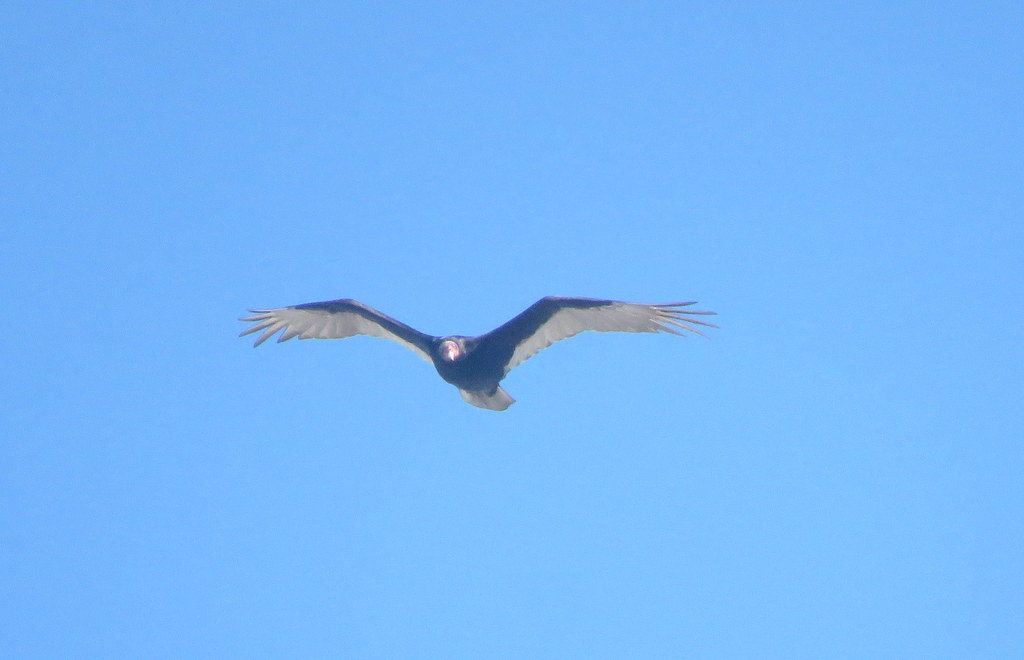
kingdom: Animalia
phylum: Chordata
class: Aves
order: Accipitriformes
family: Cathartidae
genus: Cathartes
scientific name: Cathartes aura
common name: Turkey vulture
